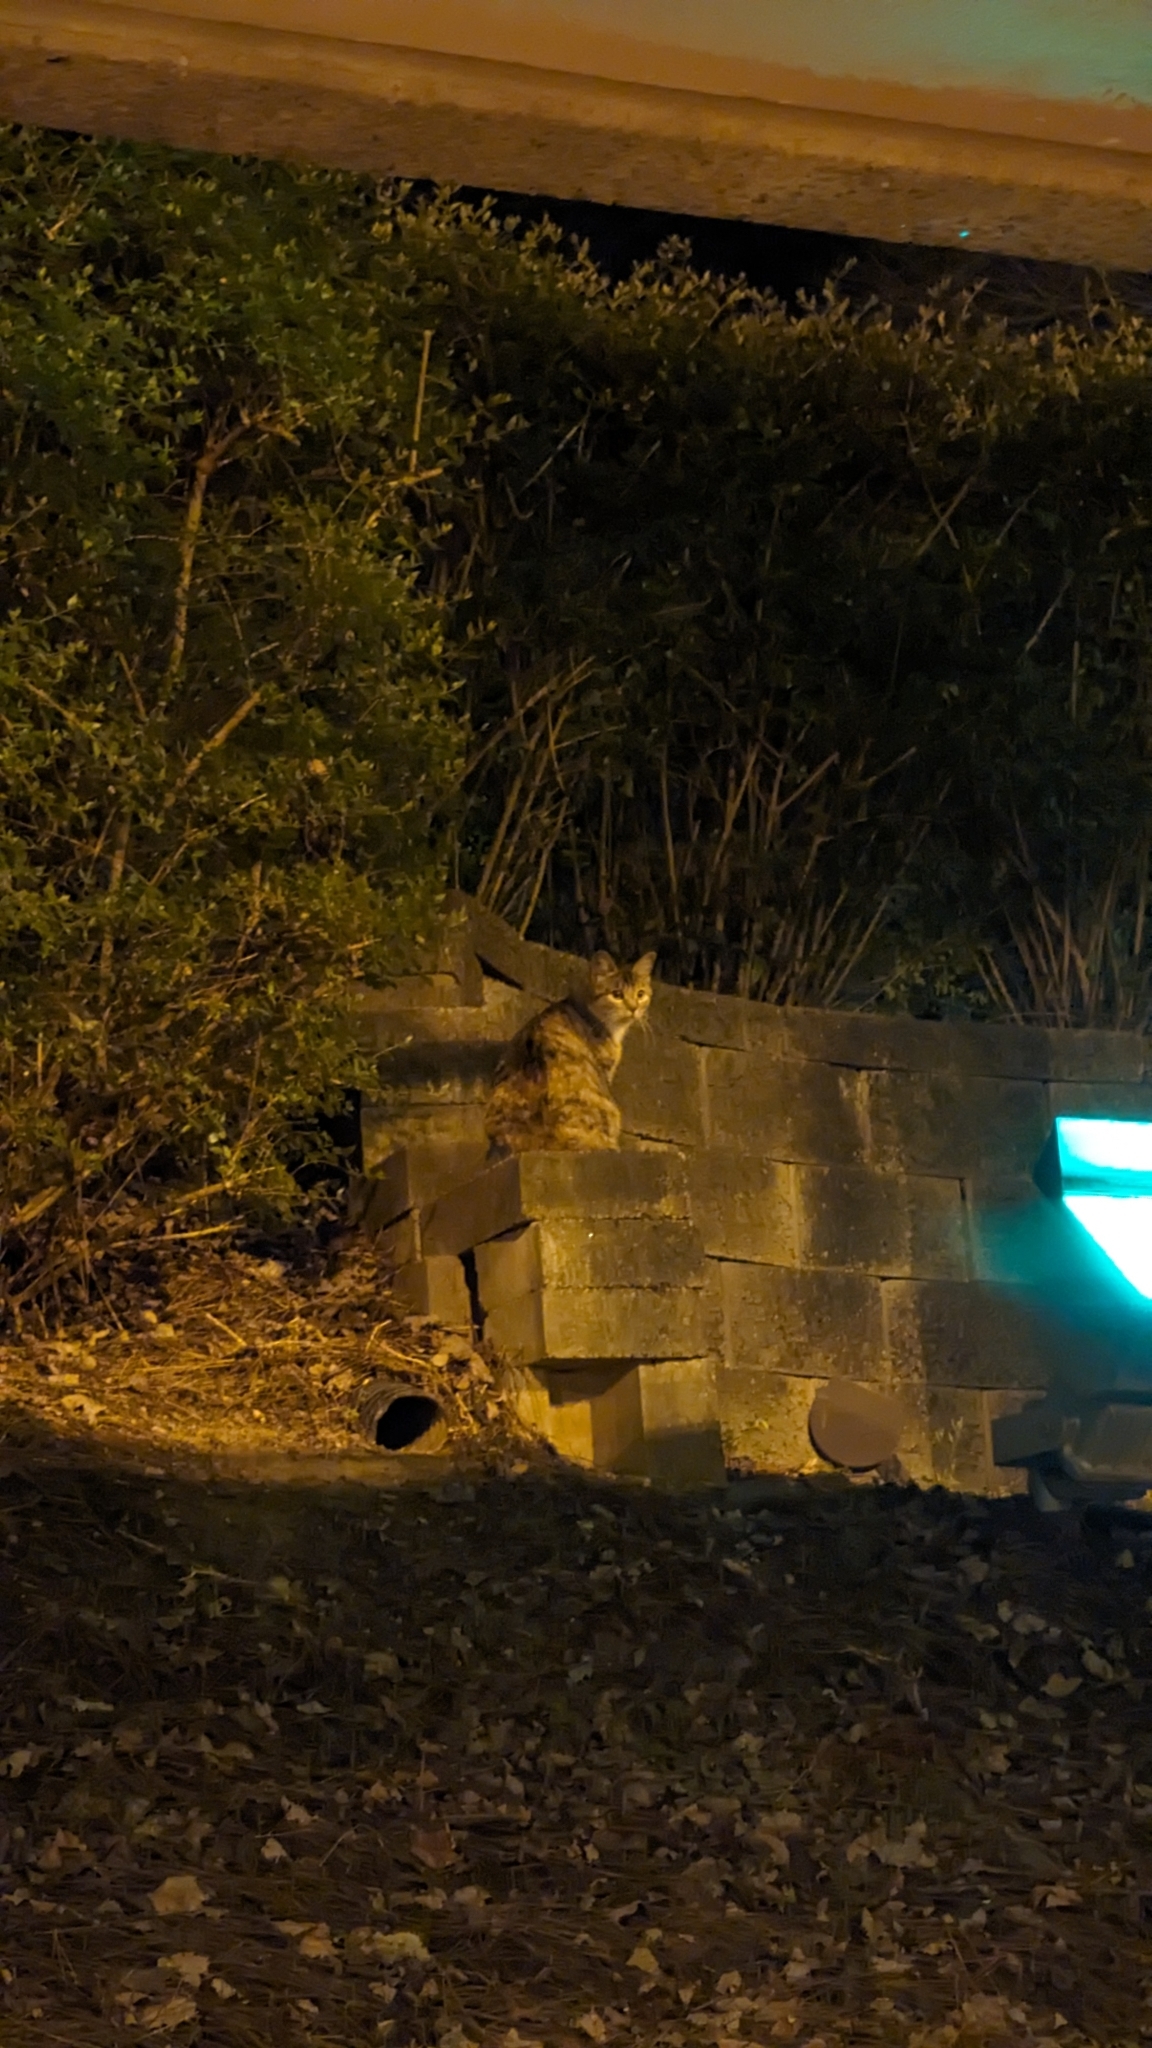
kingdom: Animalia
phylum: Chordata
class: Mammalia
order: Carnivora
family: Felidae
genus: Felis
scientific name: Felis catus
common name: Domestic cat
